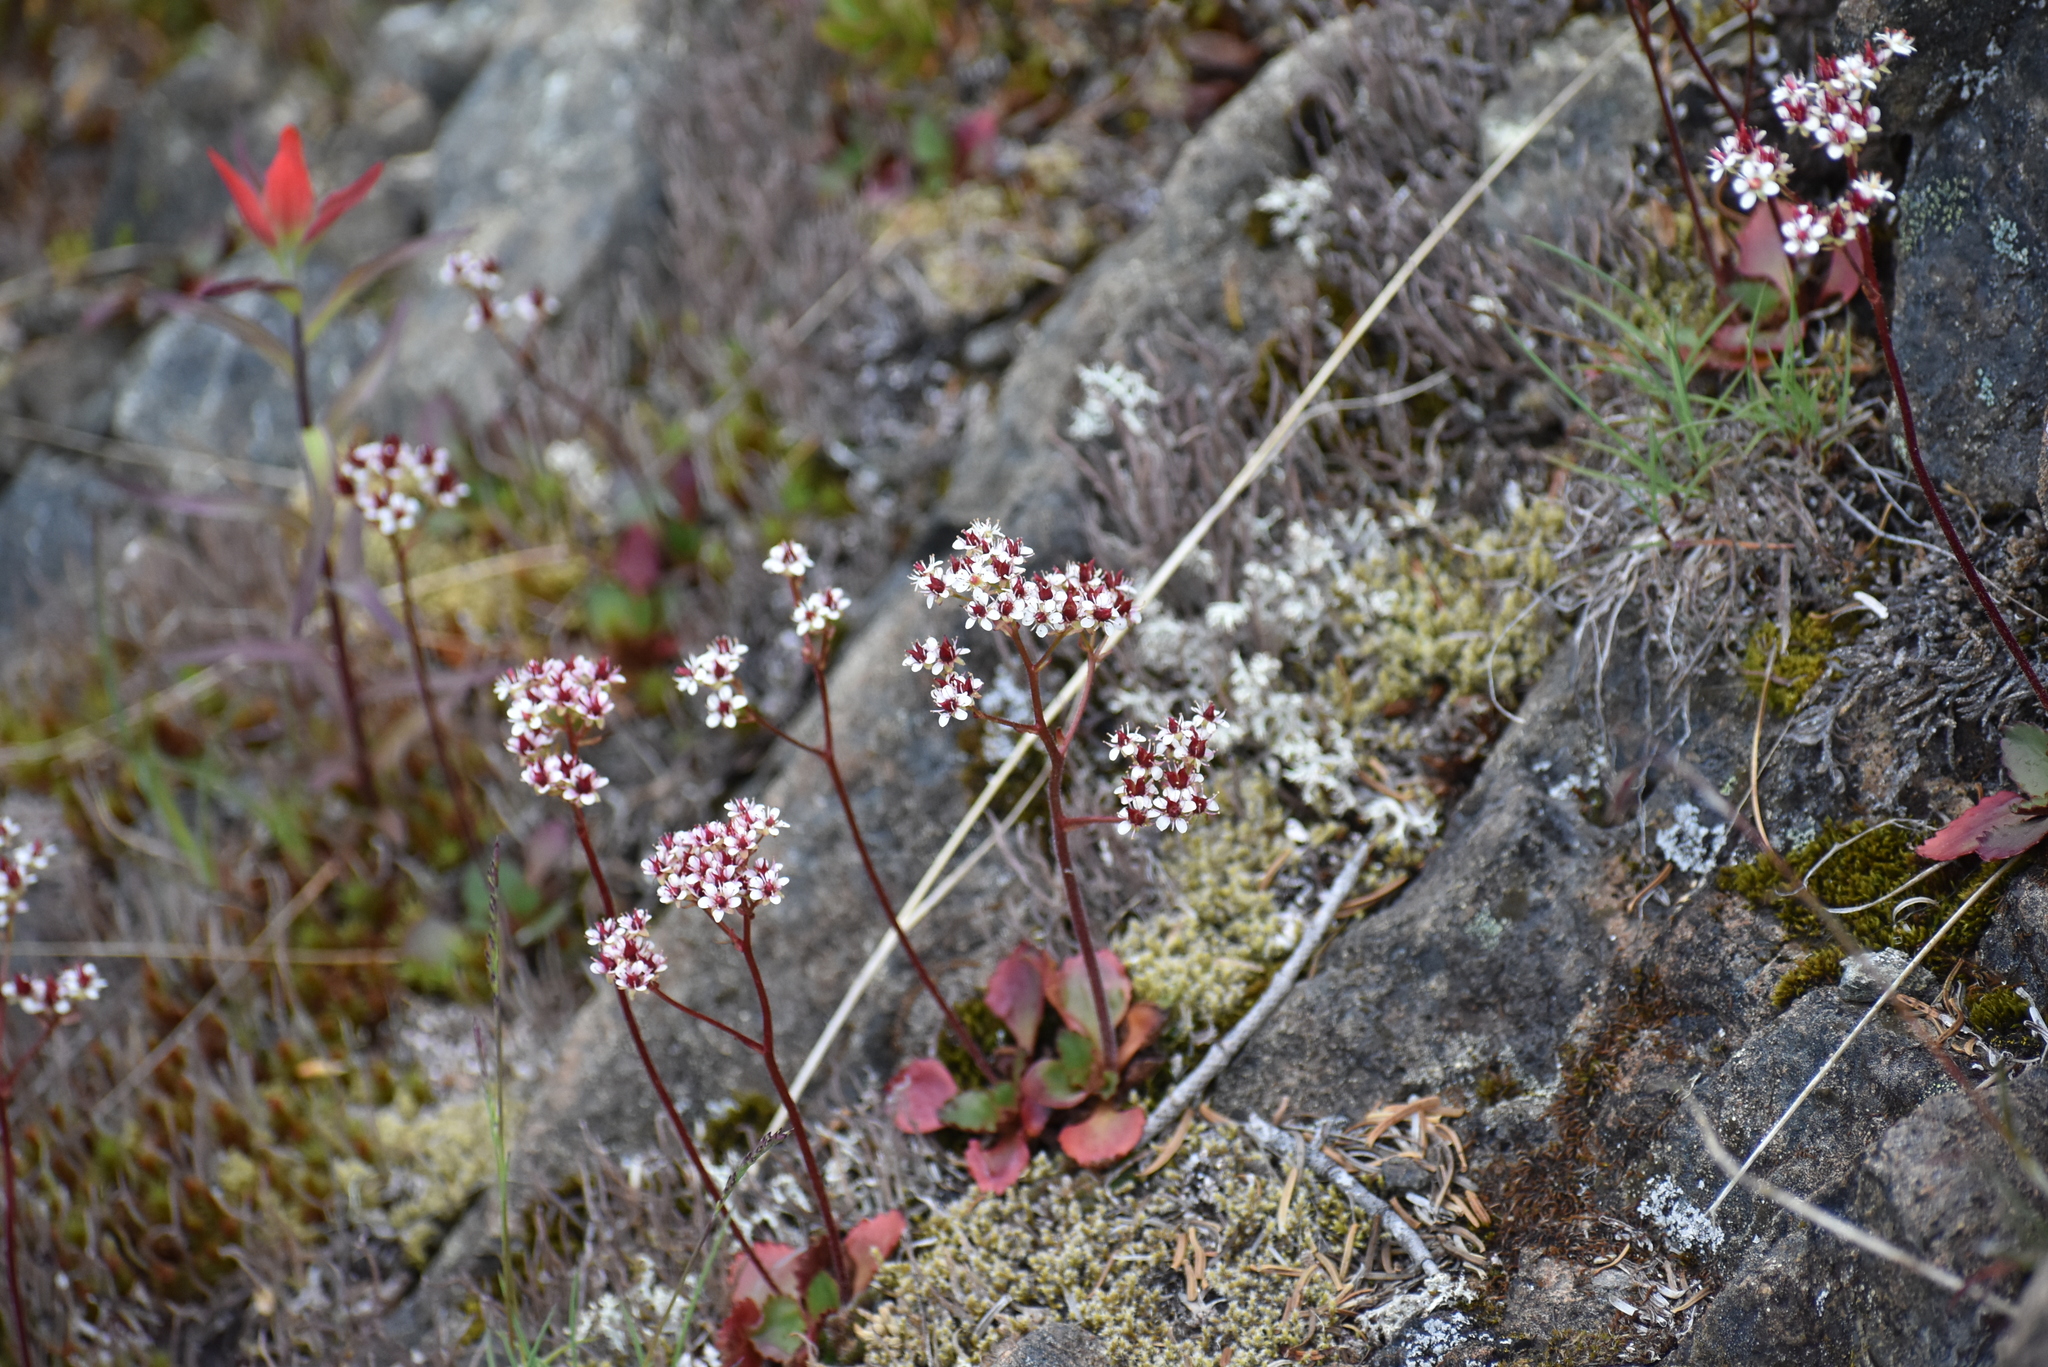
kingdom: Plantae
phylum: Tracheophyta
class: Magnoliopsida
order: Saxifragales
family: Saxifragaceae
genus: Micranthes
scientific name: Micranthes lyallii
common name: Lyall's saxifrage
